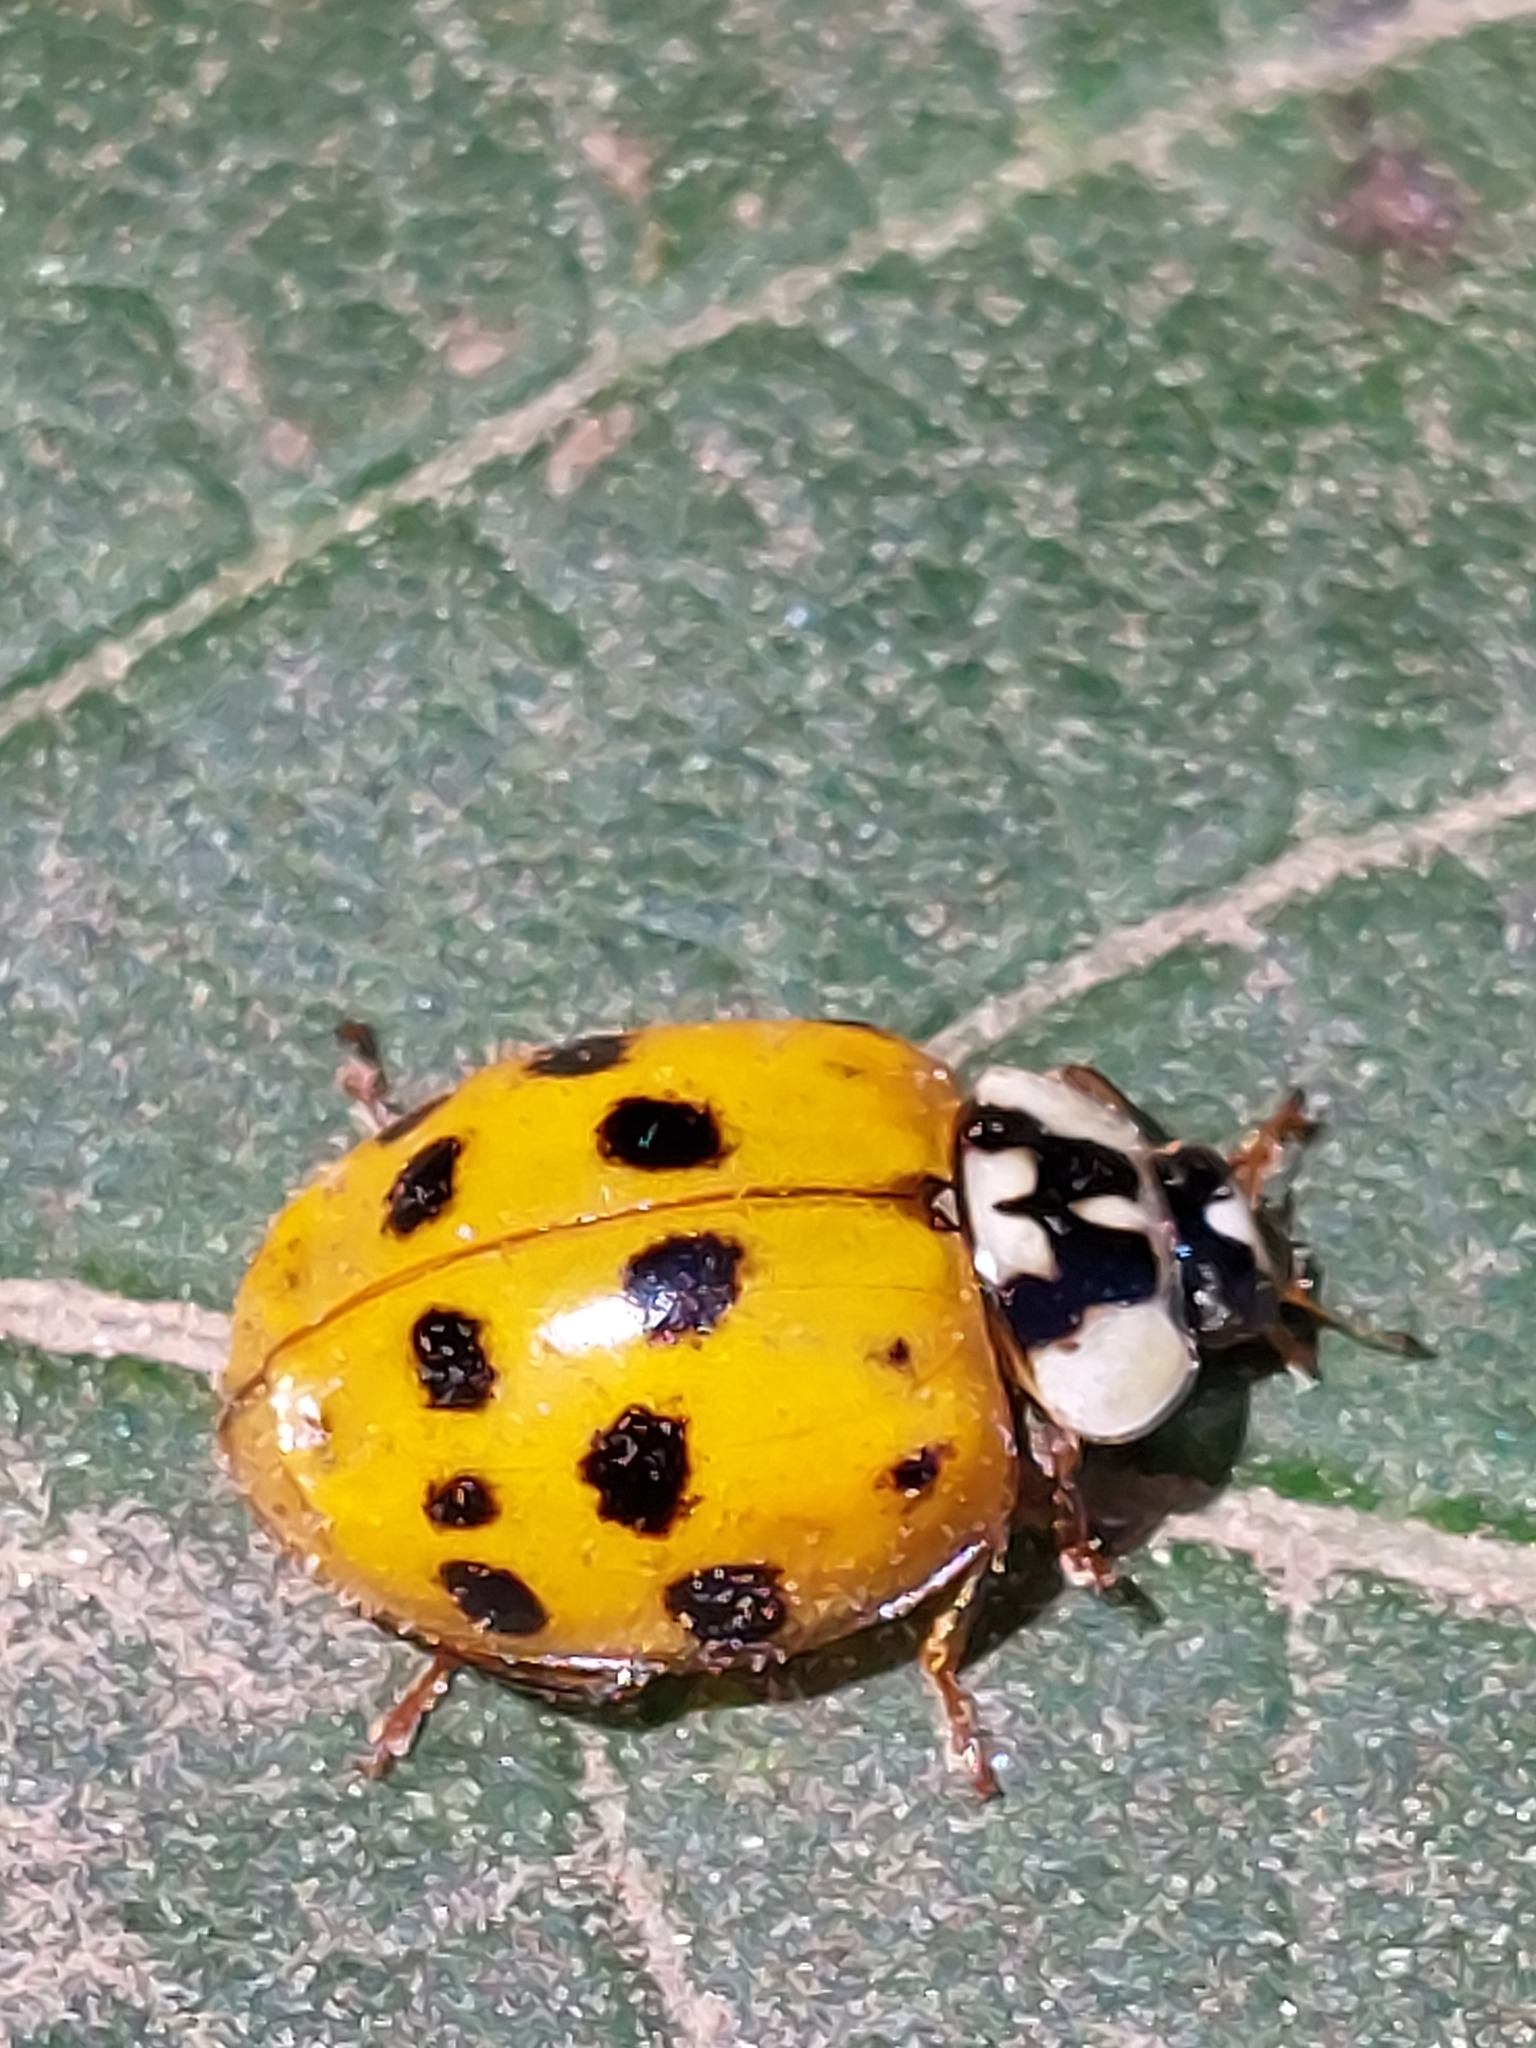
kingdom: Animalia
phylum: Arthropoda
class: Insecta
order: Coleoptera
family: Coccinellidae
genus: Harmonia
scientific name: Harmonia axyridis
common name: Harlequin ladybird
